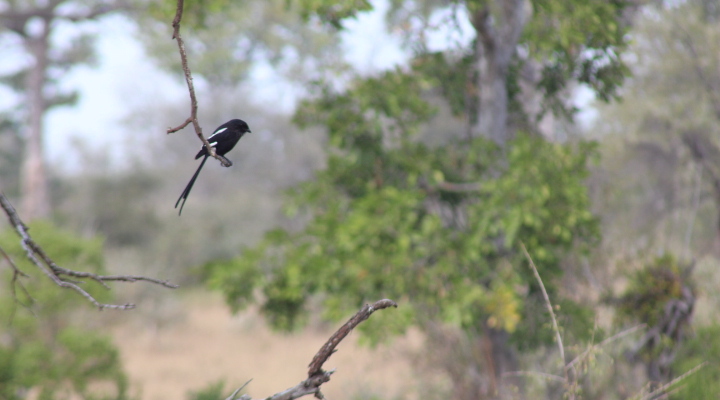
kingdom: Animalia
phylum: Chordata
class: Aves
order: Passeriformes
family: Laniidae
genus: Urolestes
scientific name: Urolestes melanoleucus
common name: Magpie shrike
